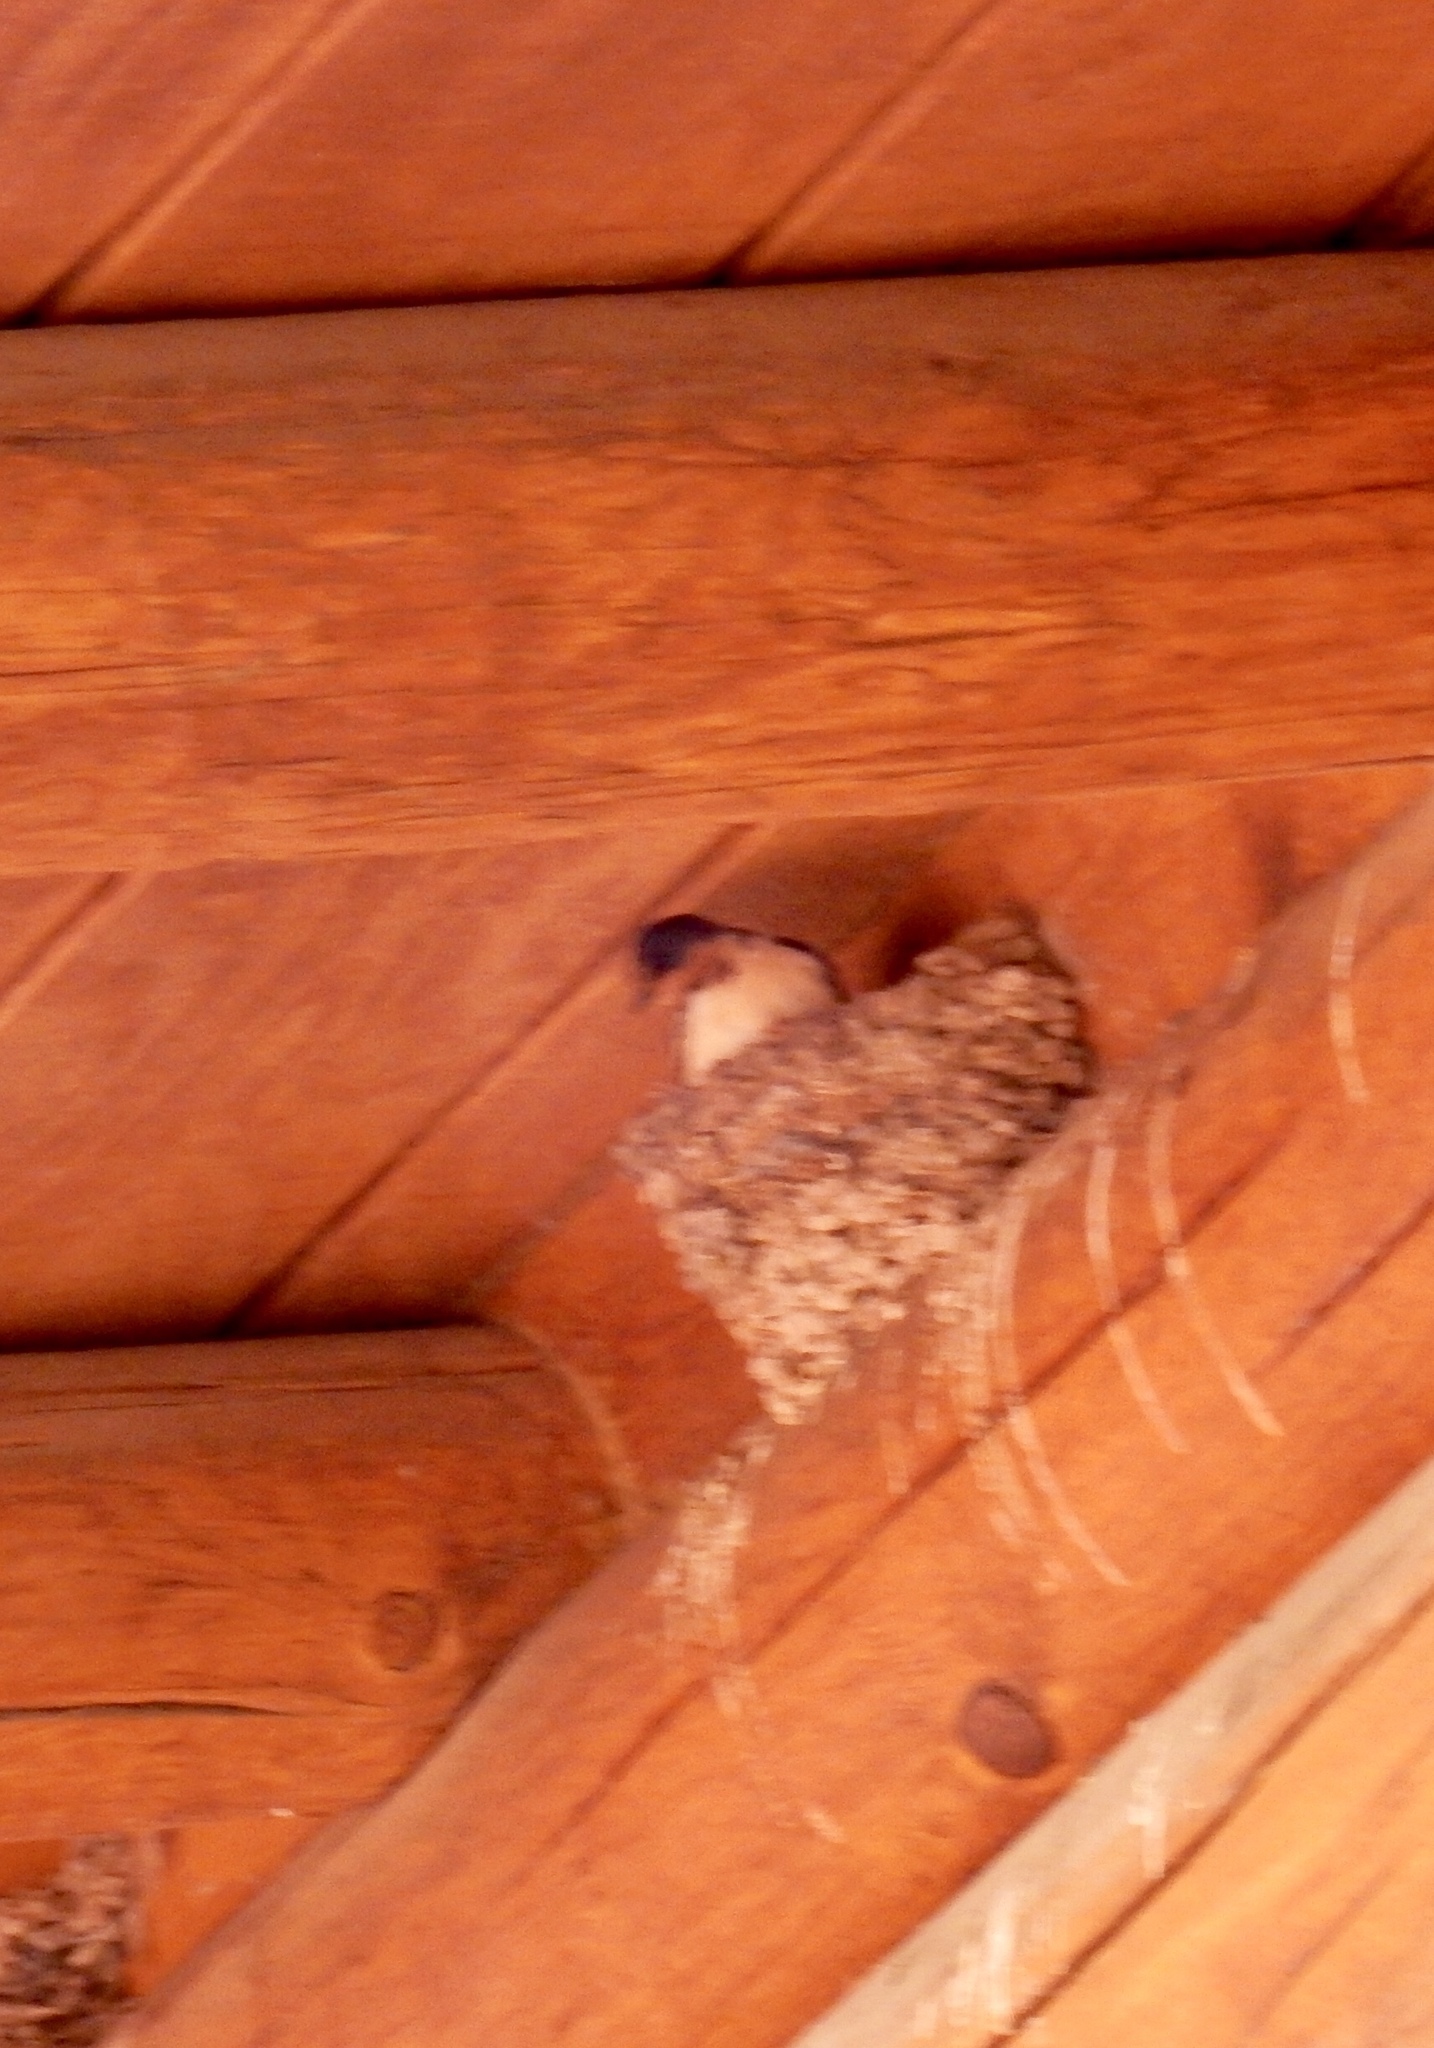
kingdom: Animalia
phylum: Chordata
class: Aves
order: Passeriformes
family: Hirundinidae
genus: Hirundo
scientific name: Hirundo rustica
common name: Barn swallow
